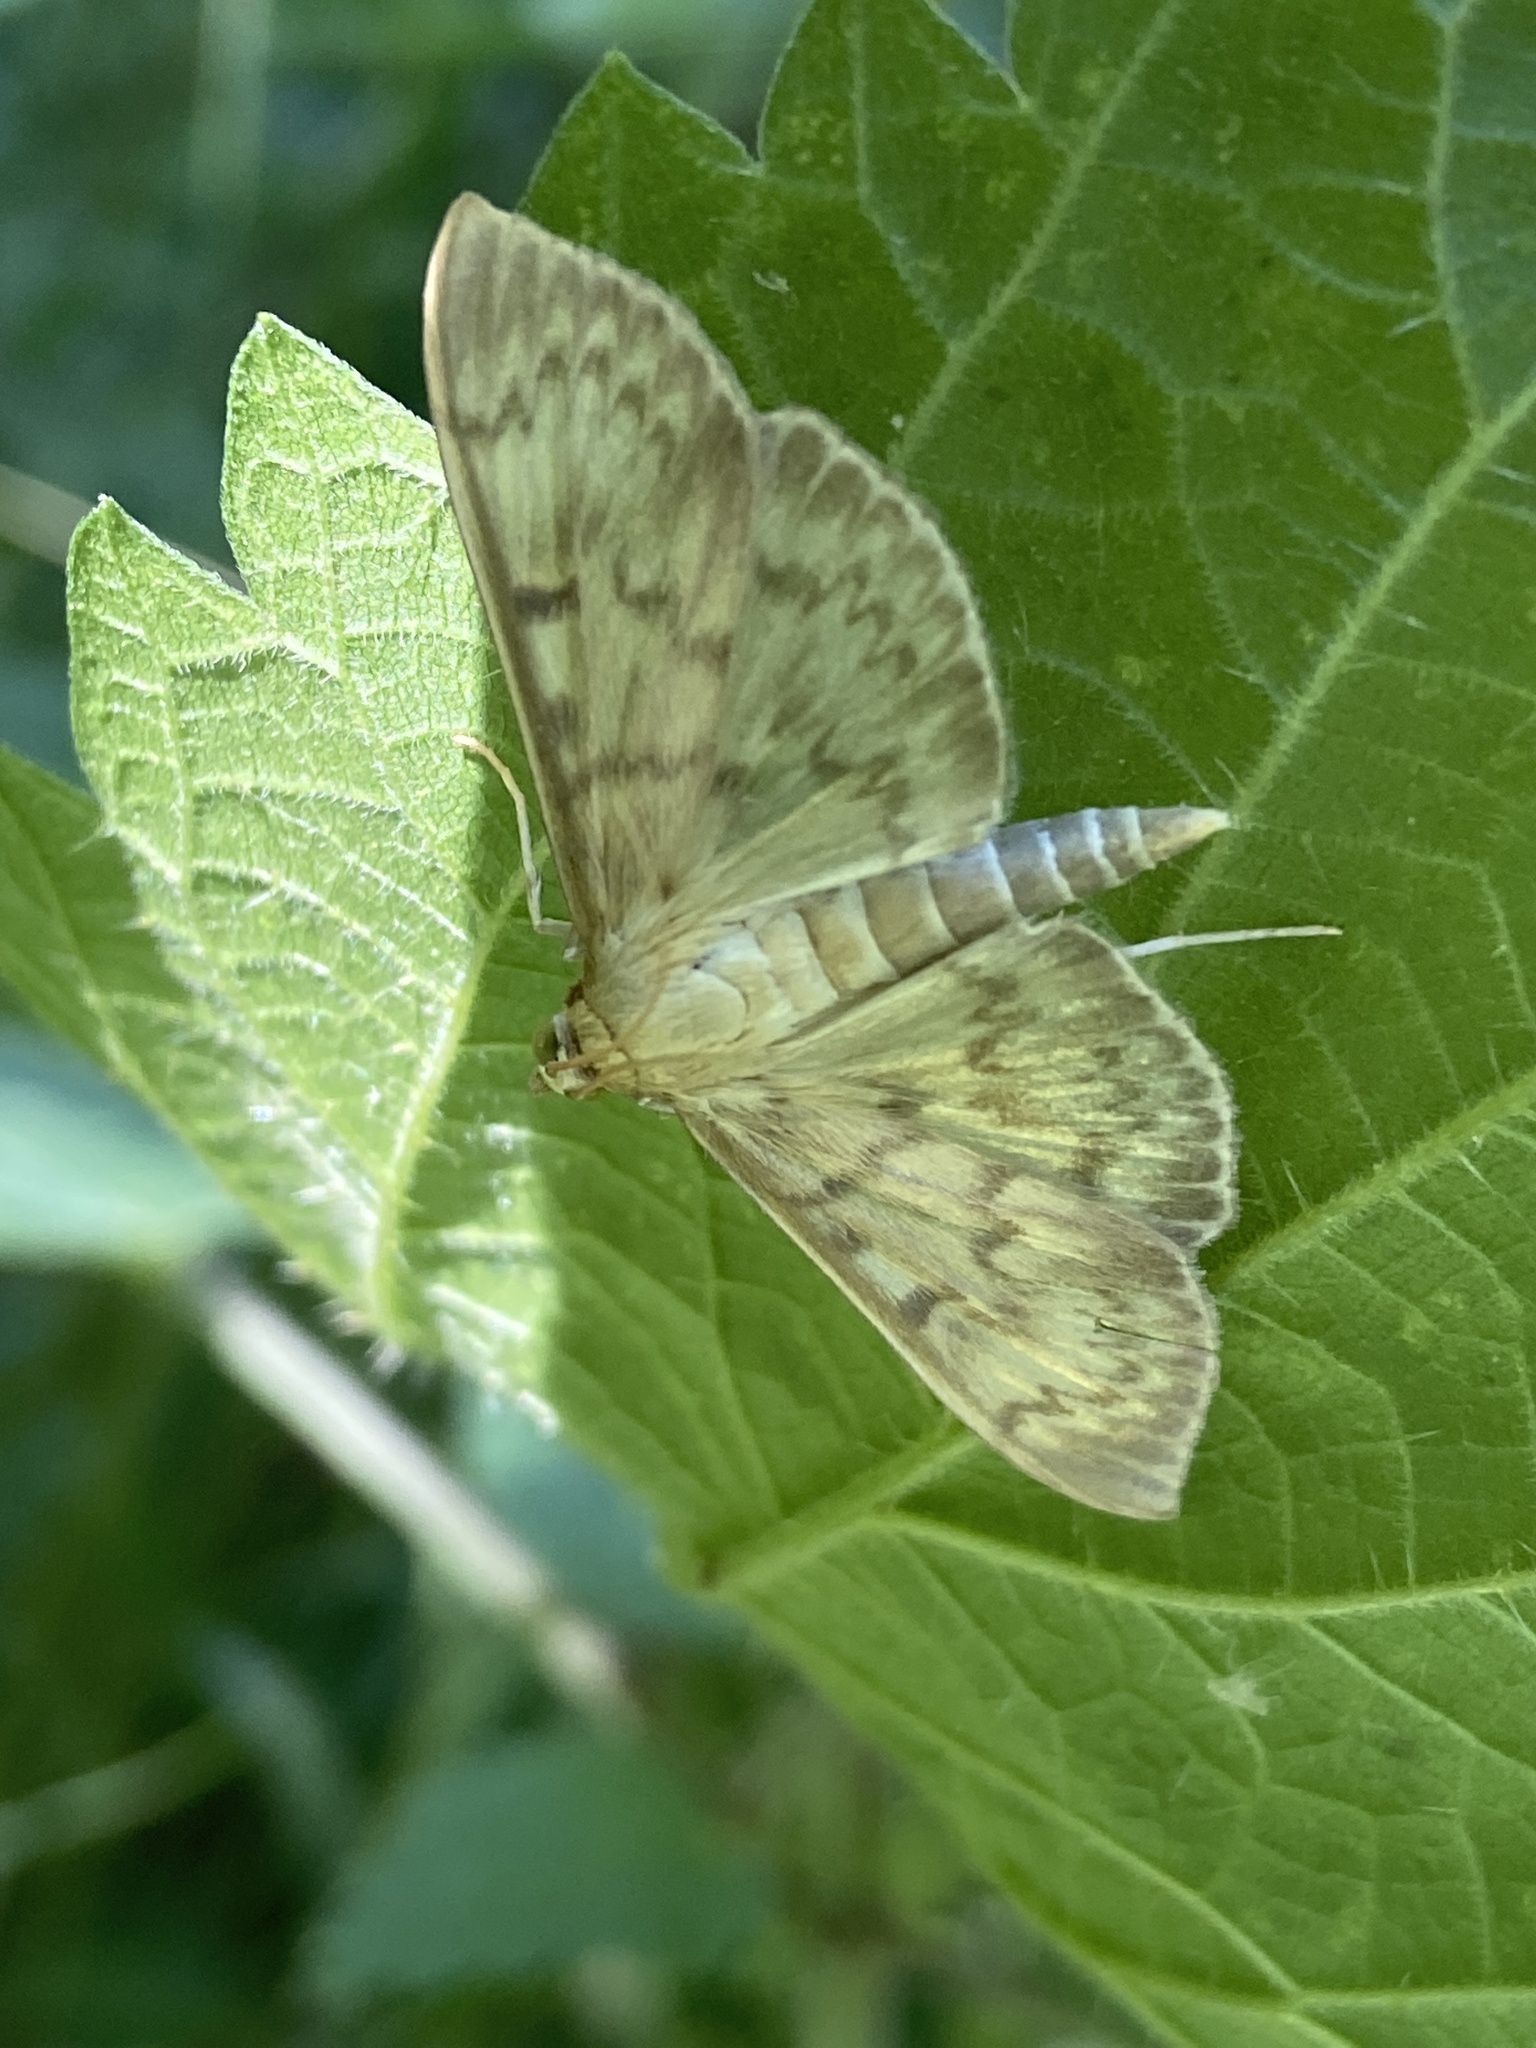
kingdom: Animalia
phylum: Arthropoda
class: Insecta
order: Lepidoptera
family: Crambidae
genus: Patania
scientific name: Patania ruralis
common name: Mother of pearl
